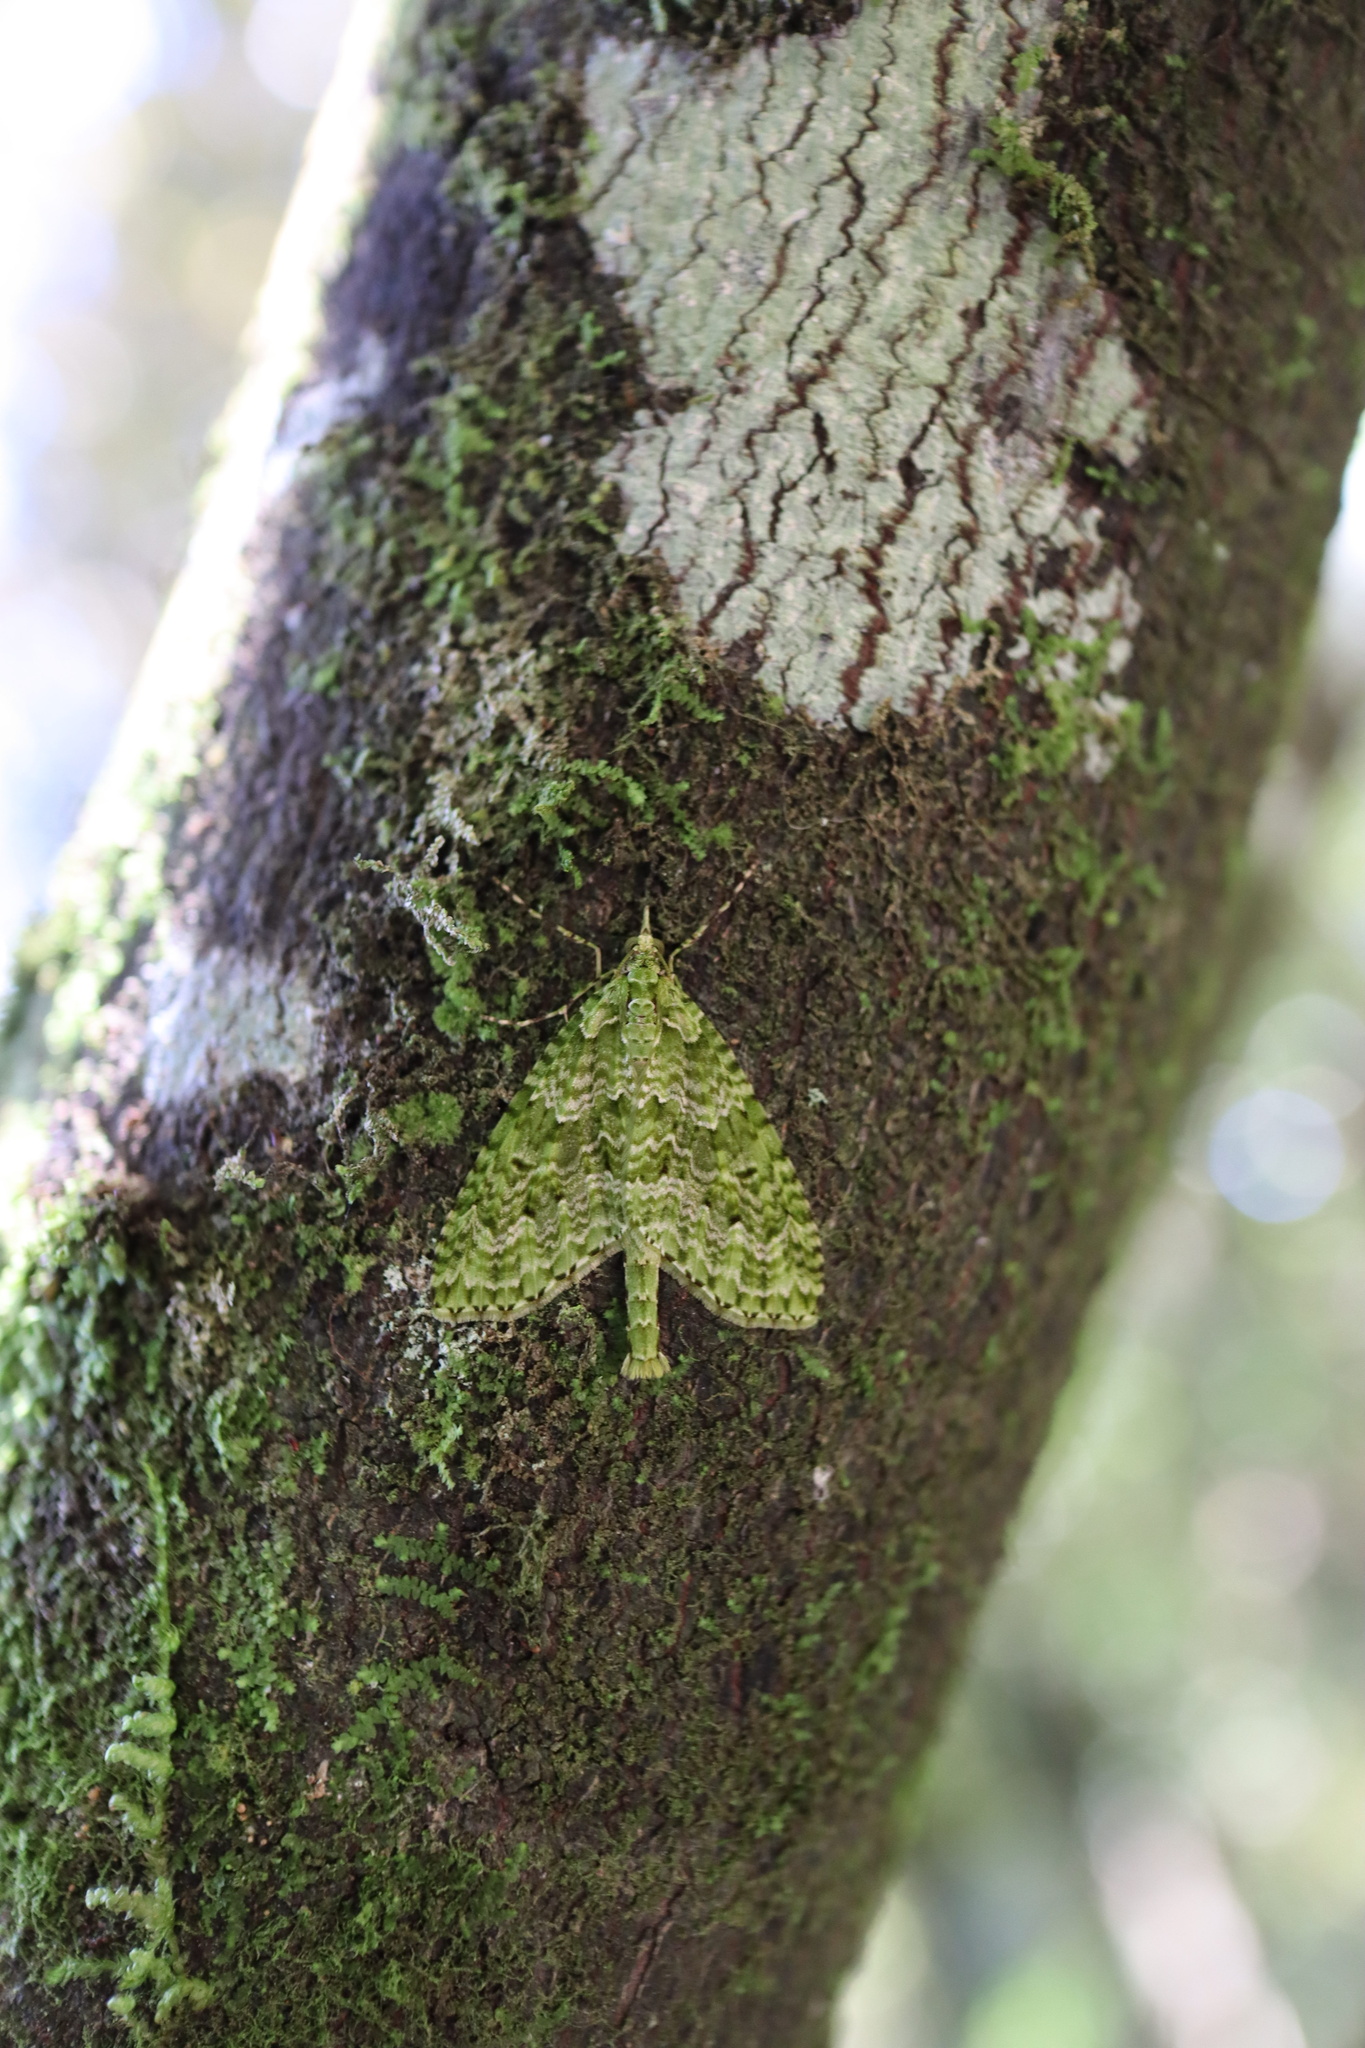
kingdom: Animalia
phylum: Arthropoda
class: Insecta
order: Lepidoptera
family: Geometridae
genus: Tatosoma
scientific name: Tatosoma tipulata
